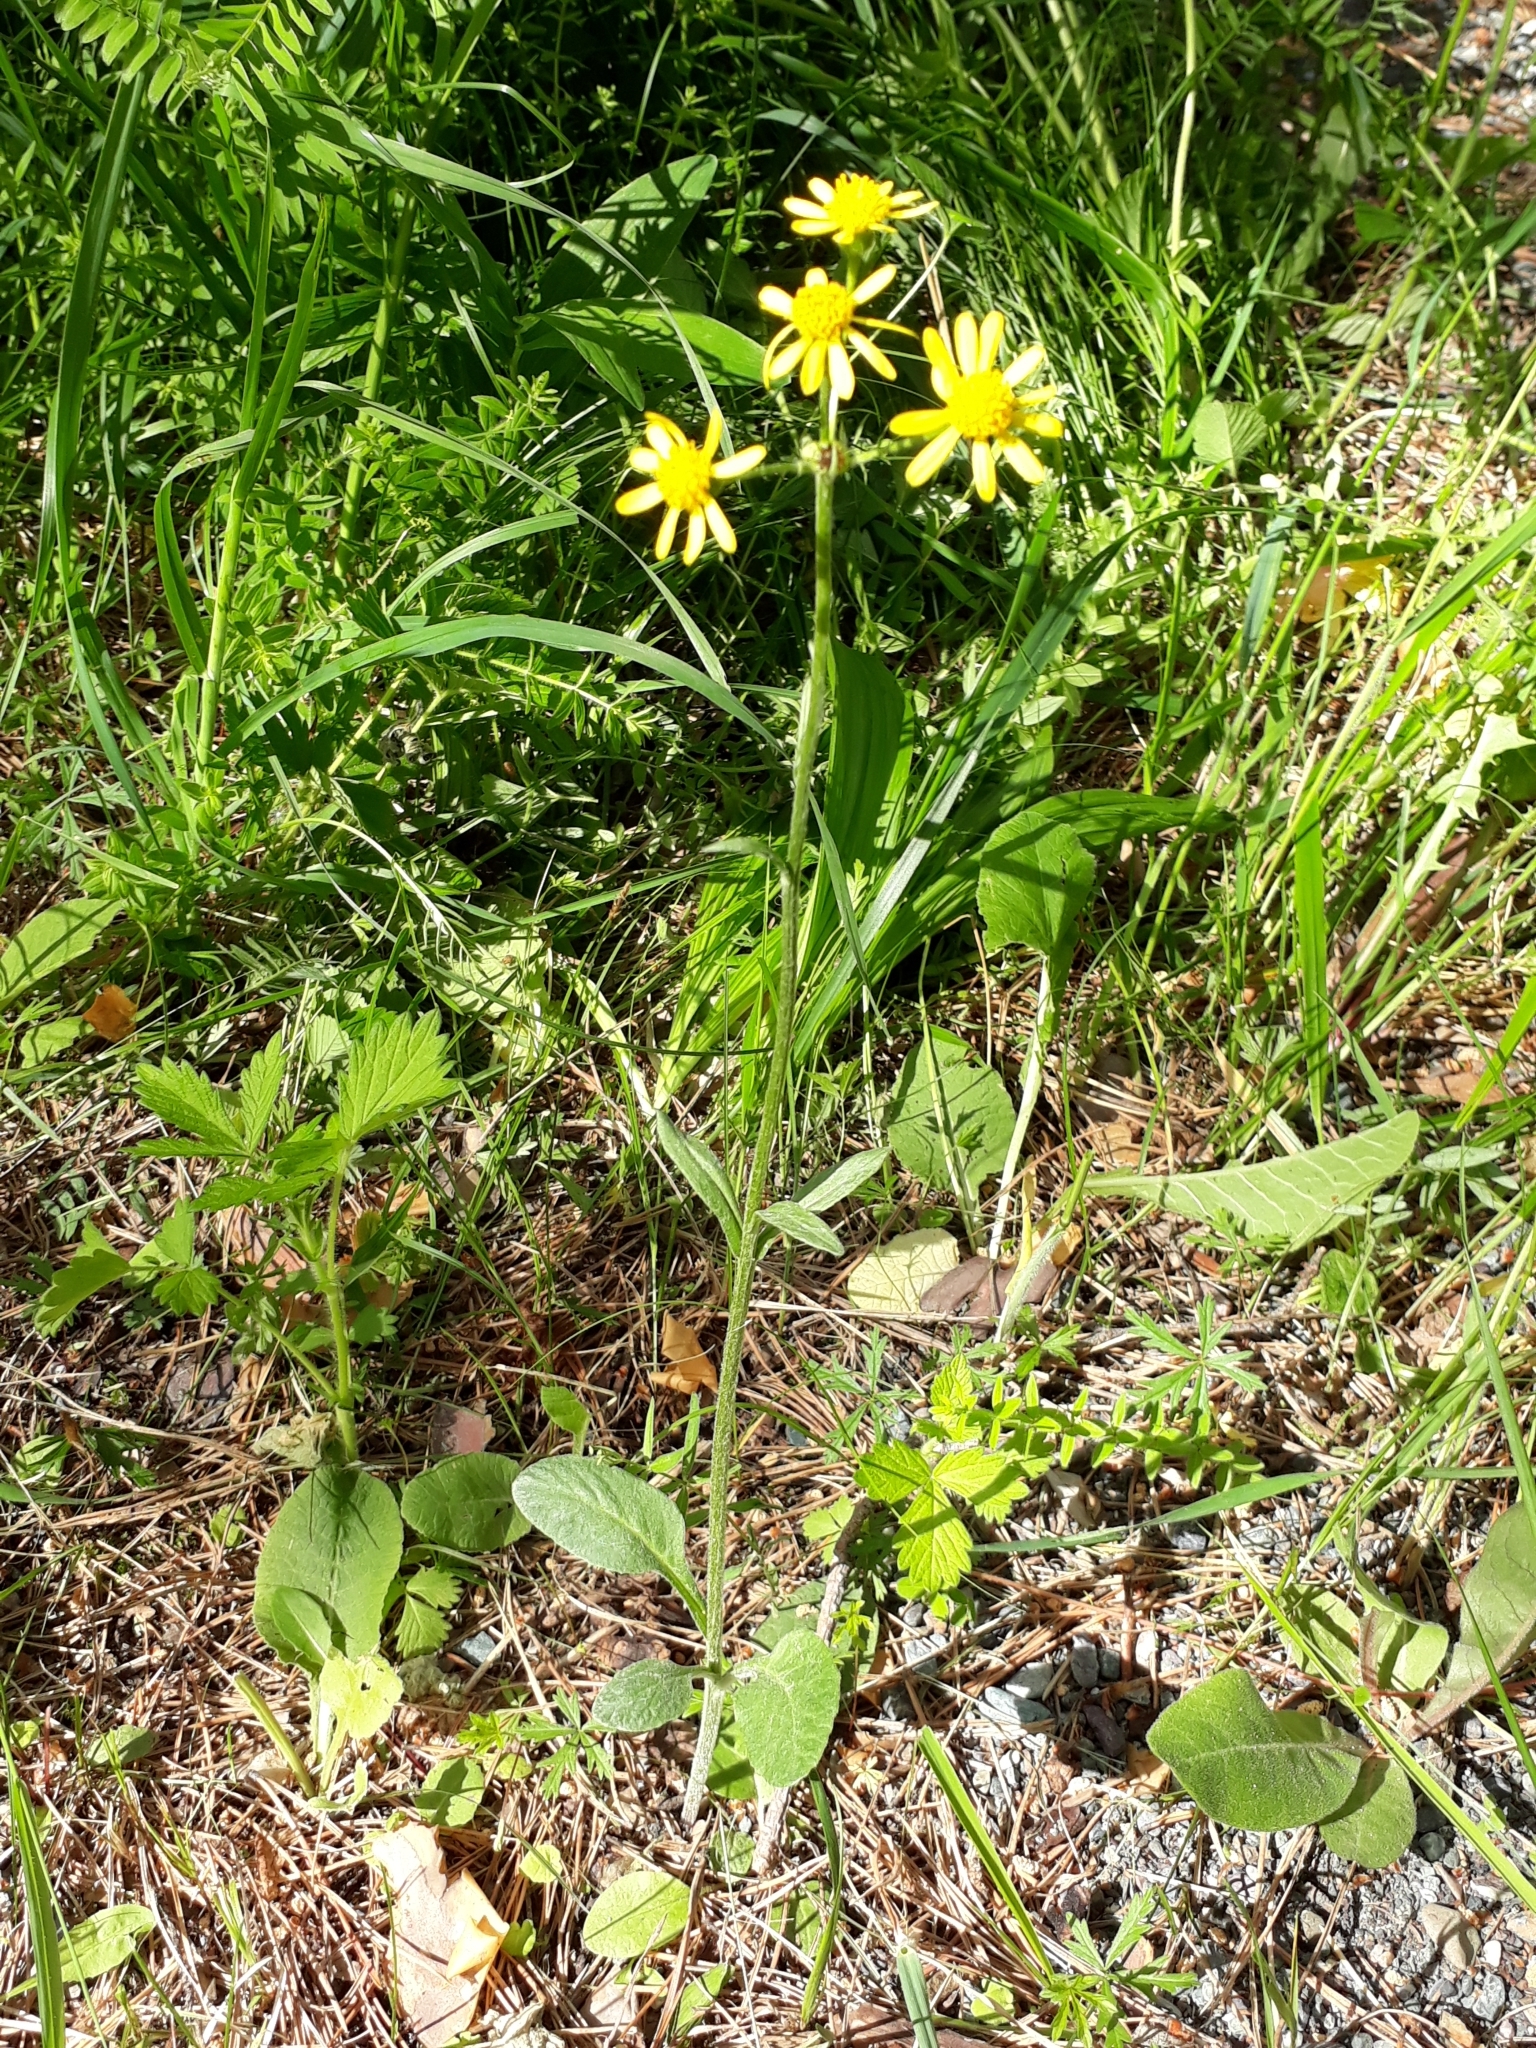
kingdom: Plantae
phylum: Tracheophyta
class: Magnoliopsida
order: Asterales
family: Asteraceae
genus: Tephroseris
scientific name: Tephroseris integrifolia
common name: Field fleawort
